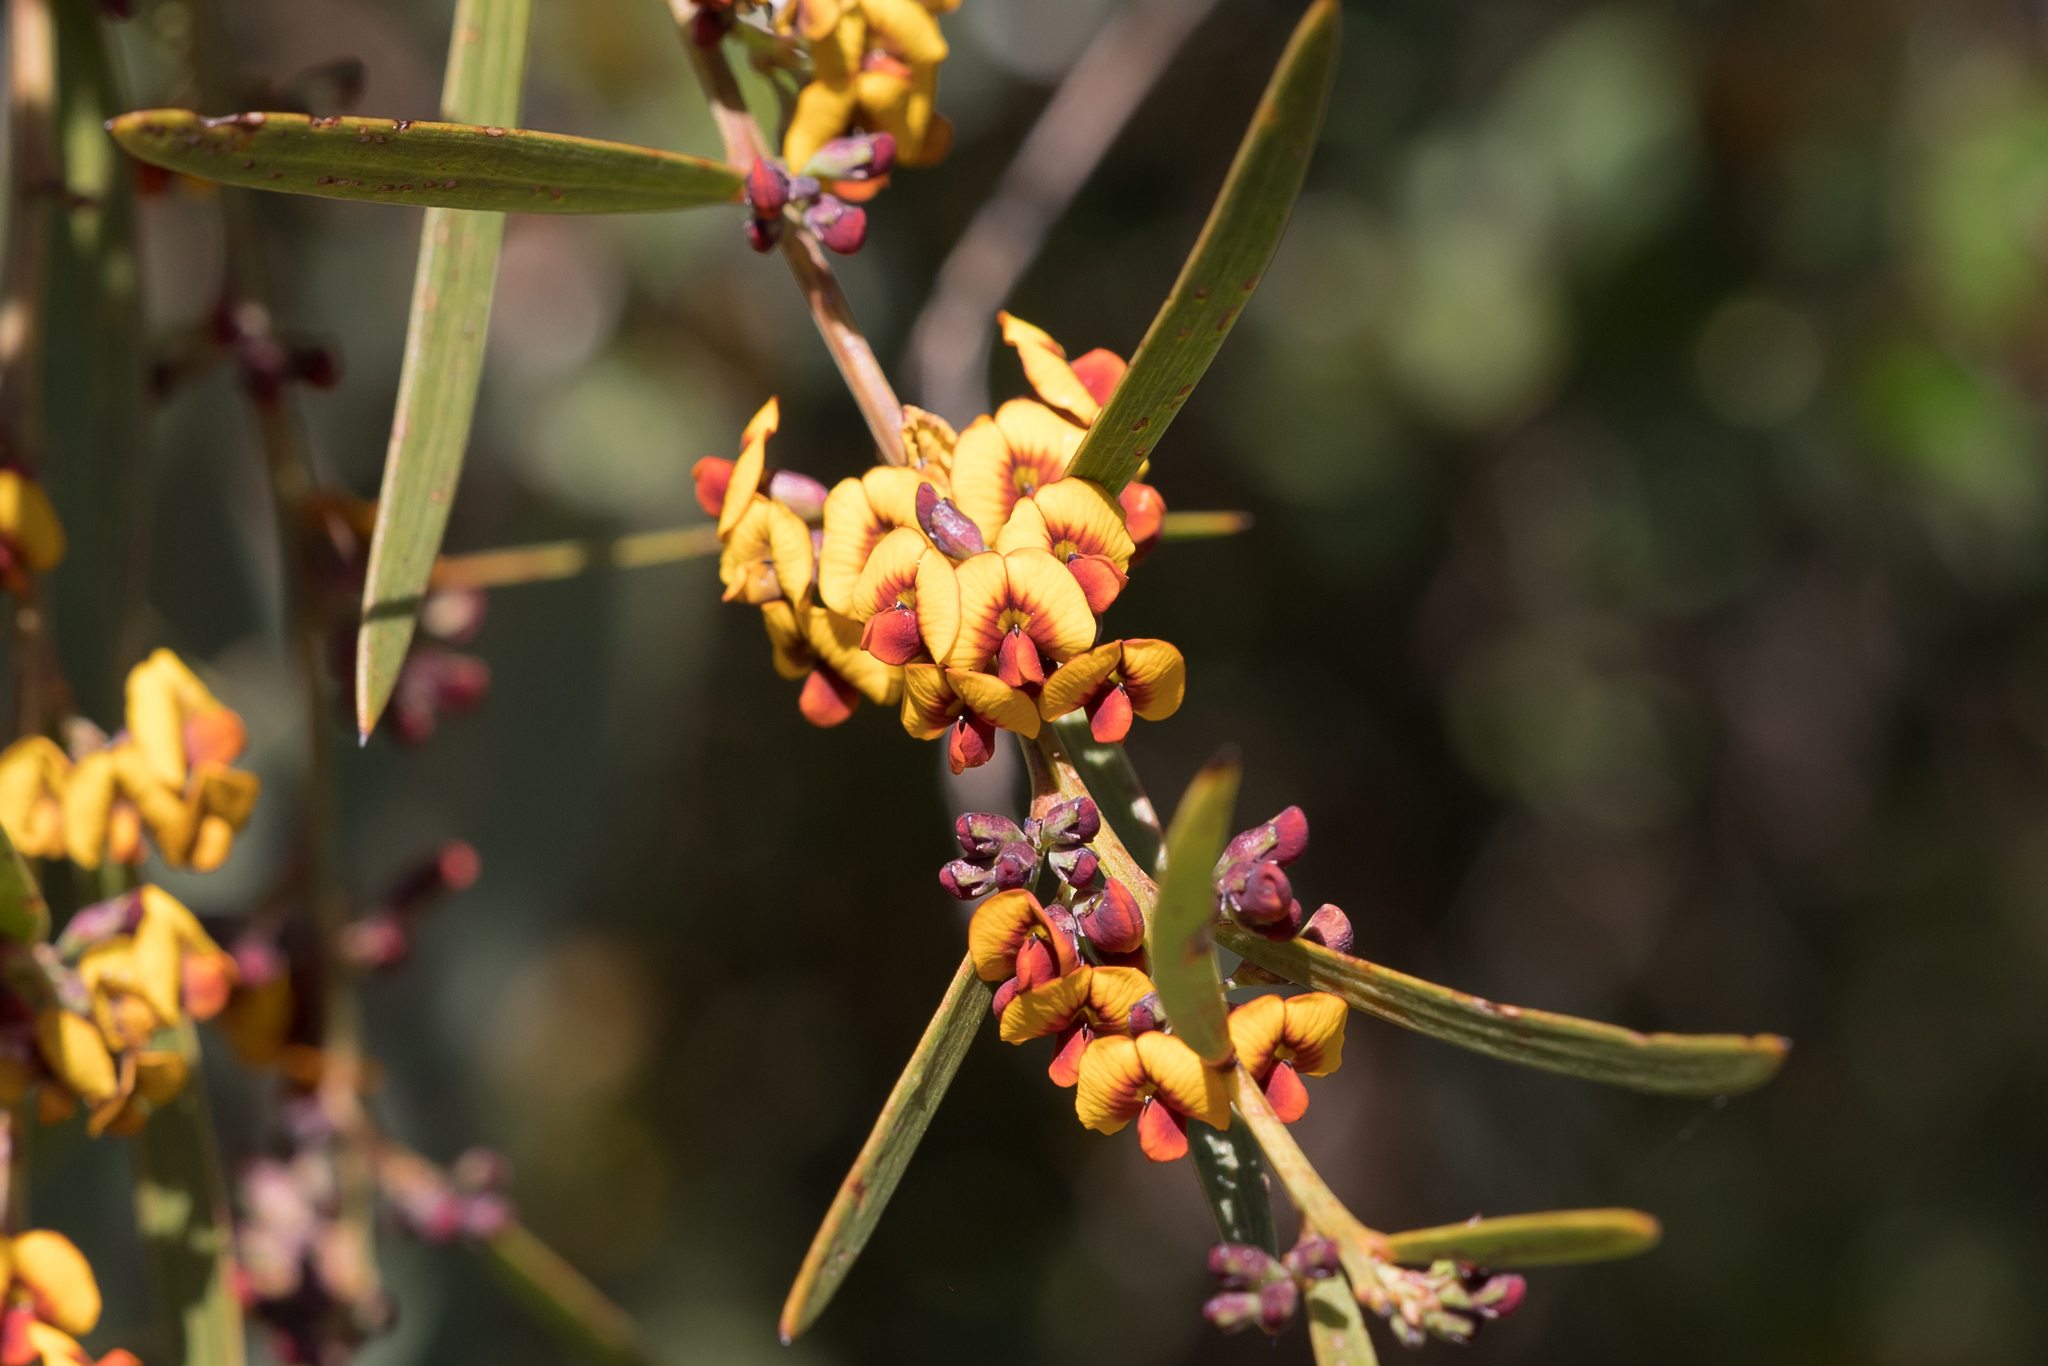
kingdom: Plantae
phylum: Tracheophyta
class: Magnoliopsida
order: Fabales
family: Fabaceae
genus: Daviesia
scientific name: Daviesia leptophylla
